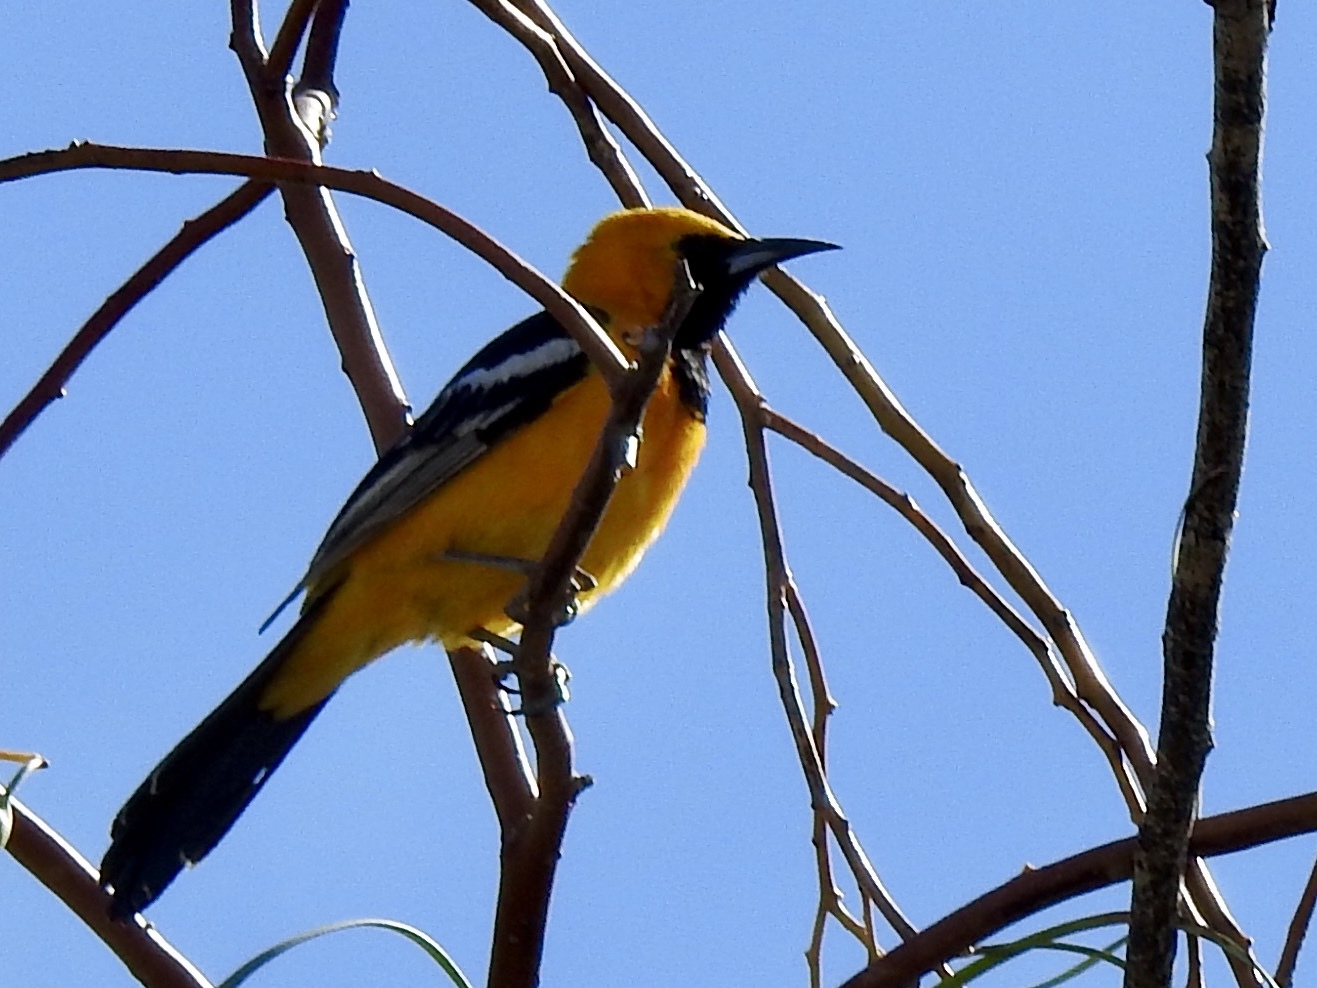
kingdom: Animalia
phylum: Chordata
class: Aves
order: Passeriformes
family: Icteridae
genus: Icterus
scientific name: Icterus cucullatus
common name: Hooded oriole
